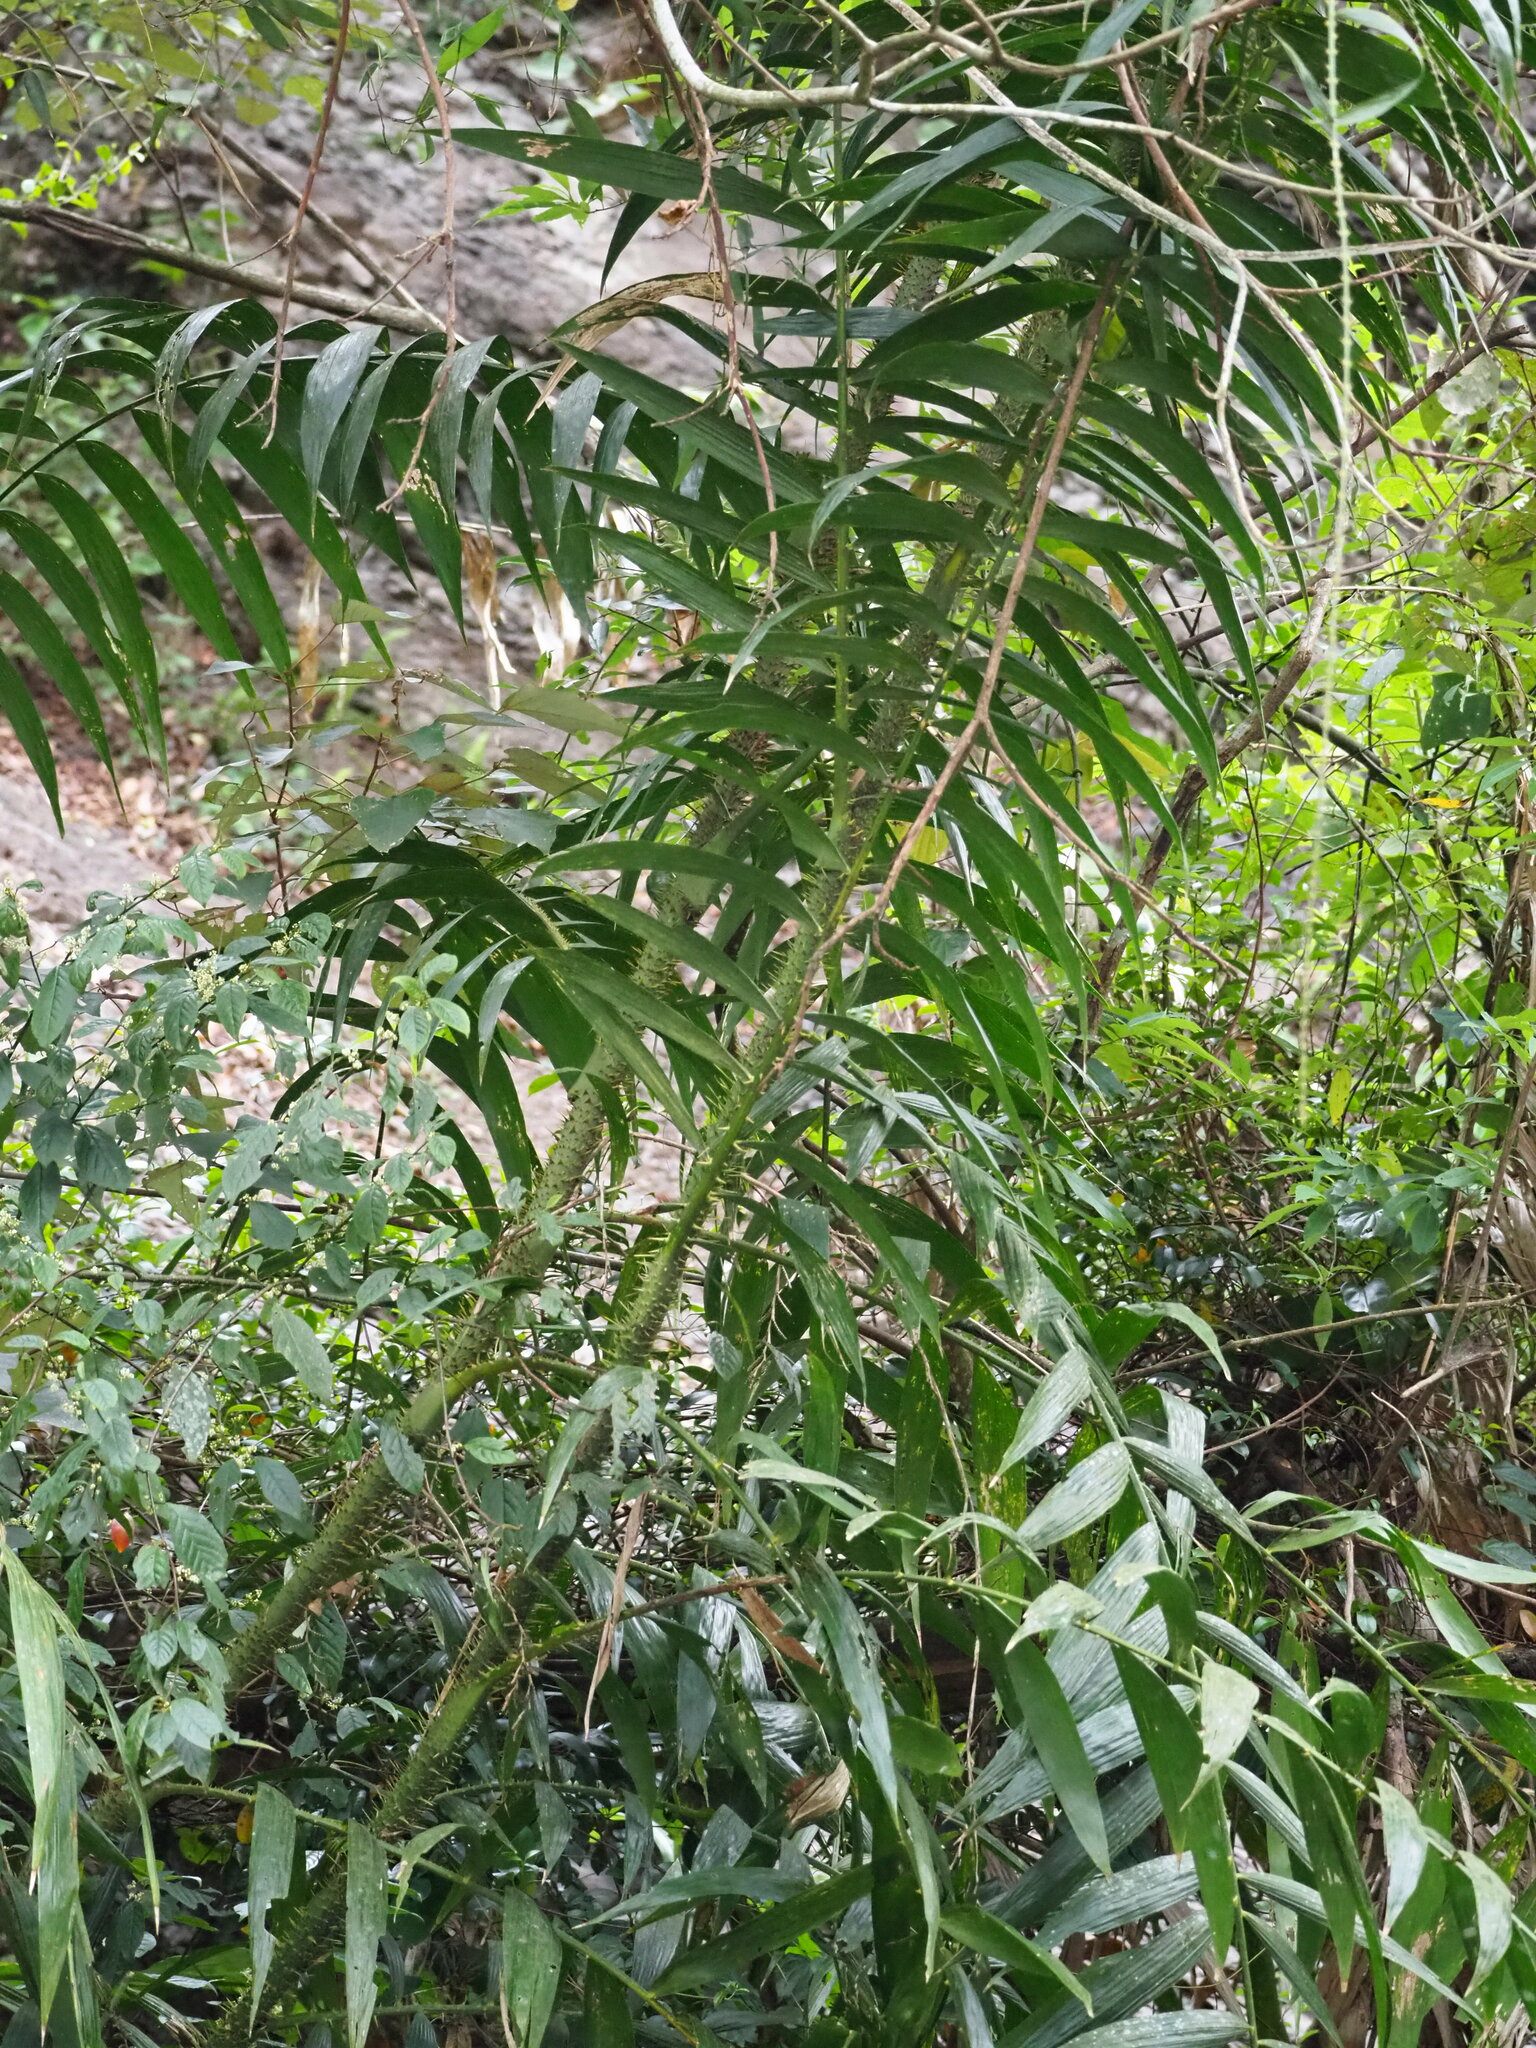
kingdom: Plantae
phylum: Tracheophyta
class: Liliopsida
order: Arecales
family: Arecaceae
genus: Calamus
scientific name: Calamus formosanus
